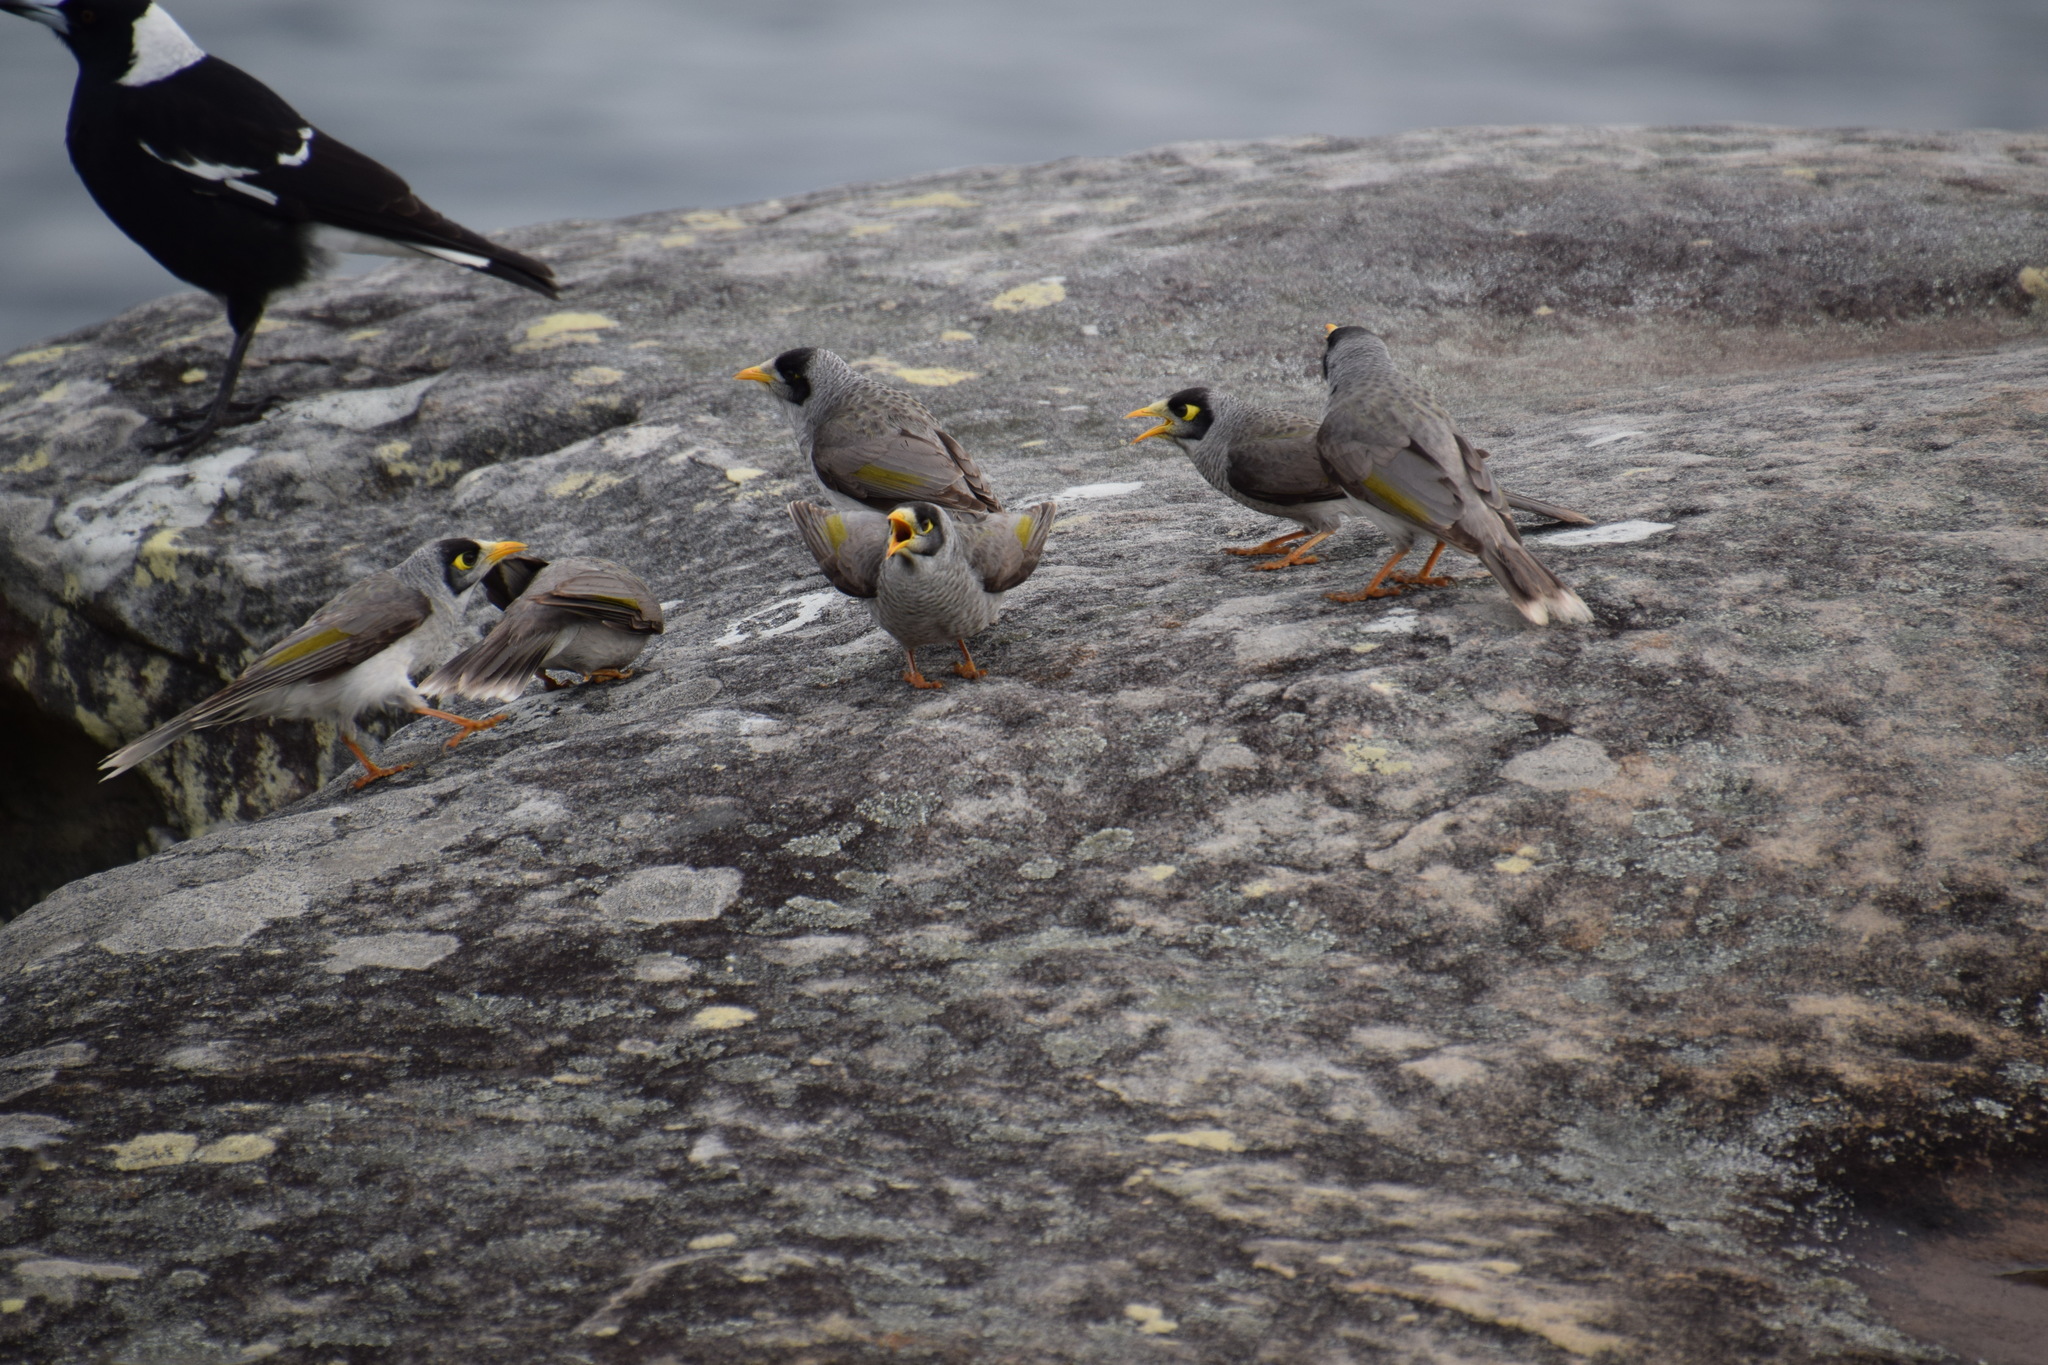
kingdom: Animalia
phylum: Chordata
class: Aves
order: Passeriformes
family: Meliphagidae
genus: Manorina
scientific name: Manorina melanocephala
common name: Noisy miner
